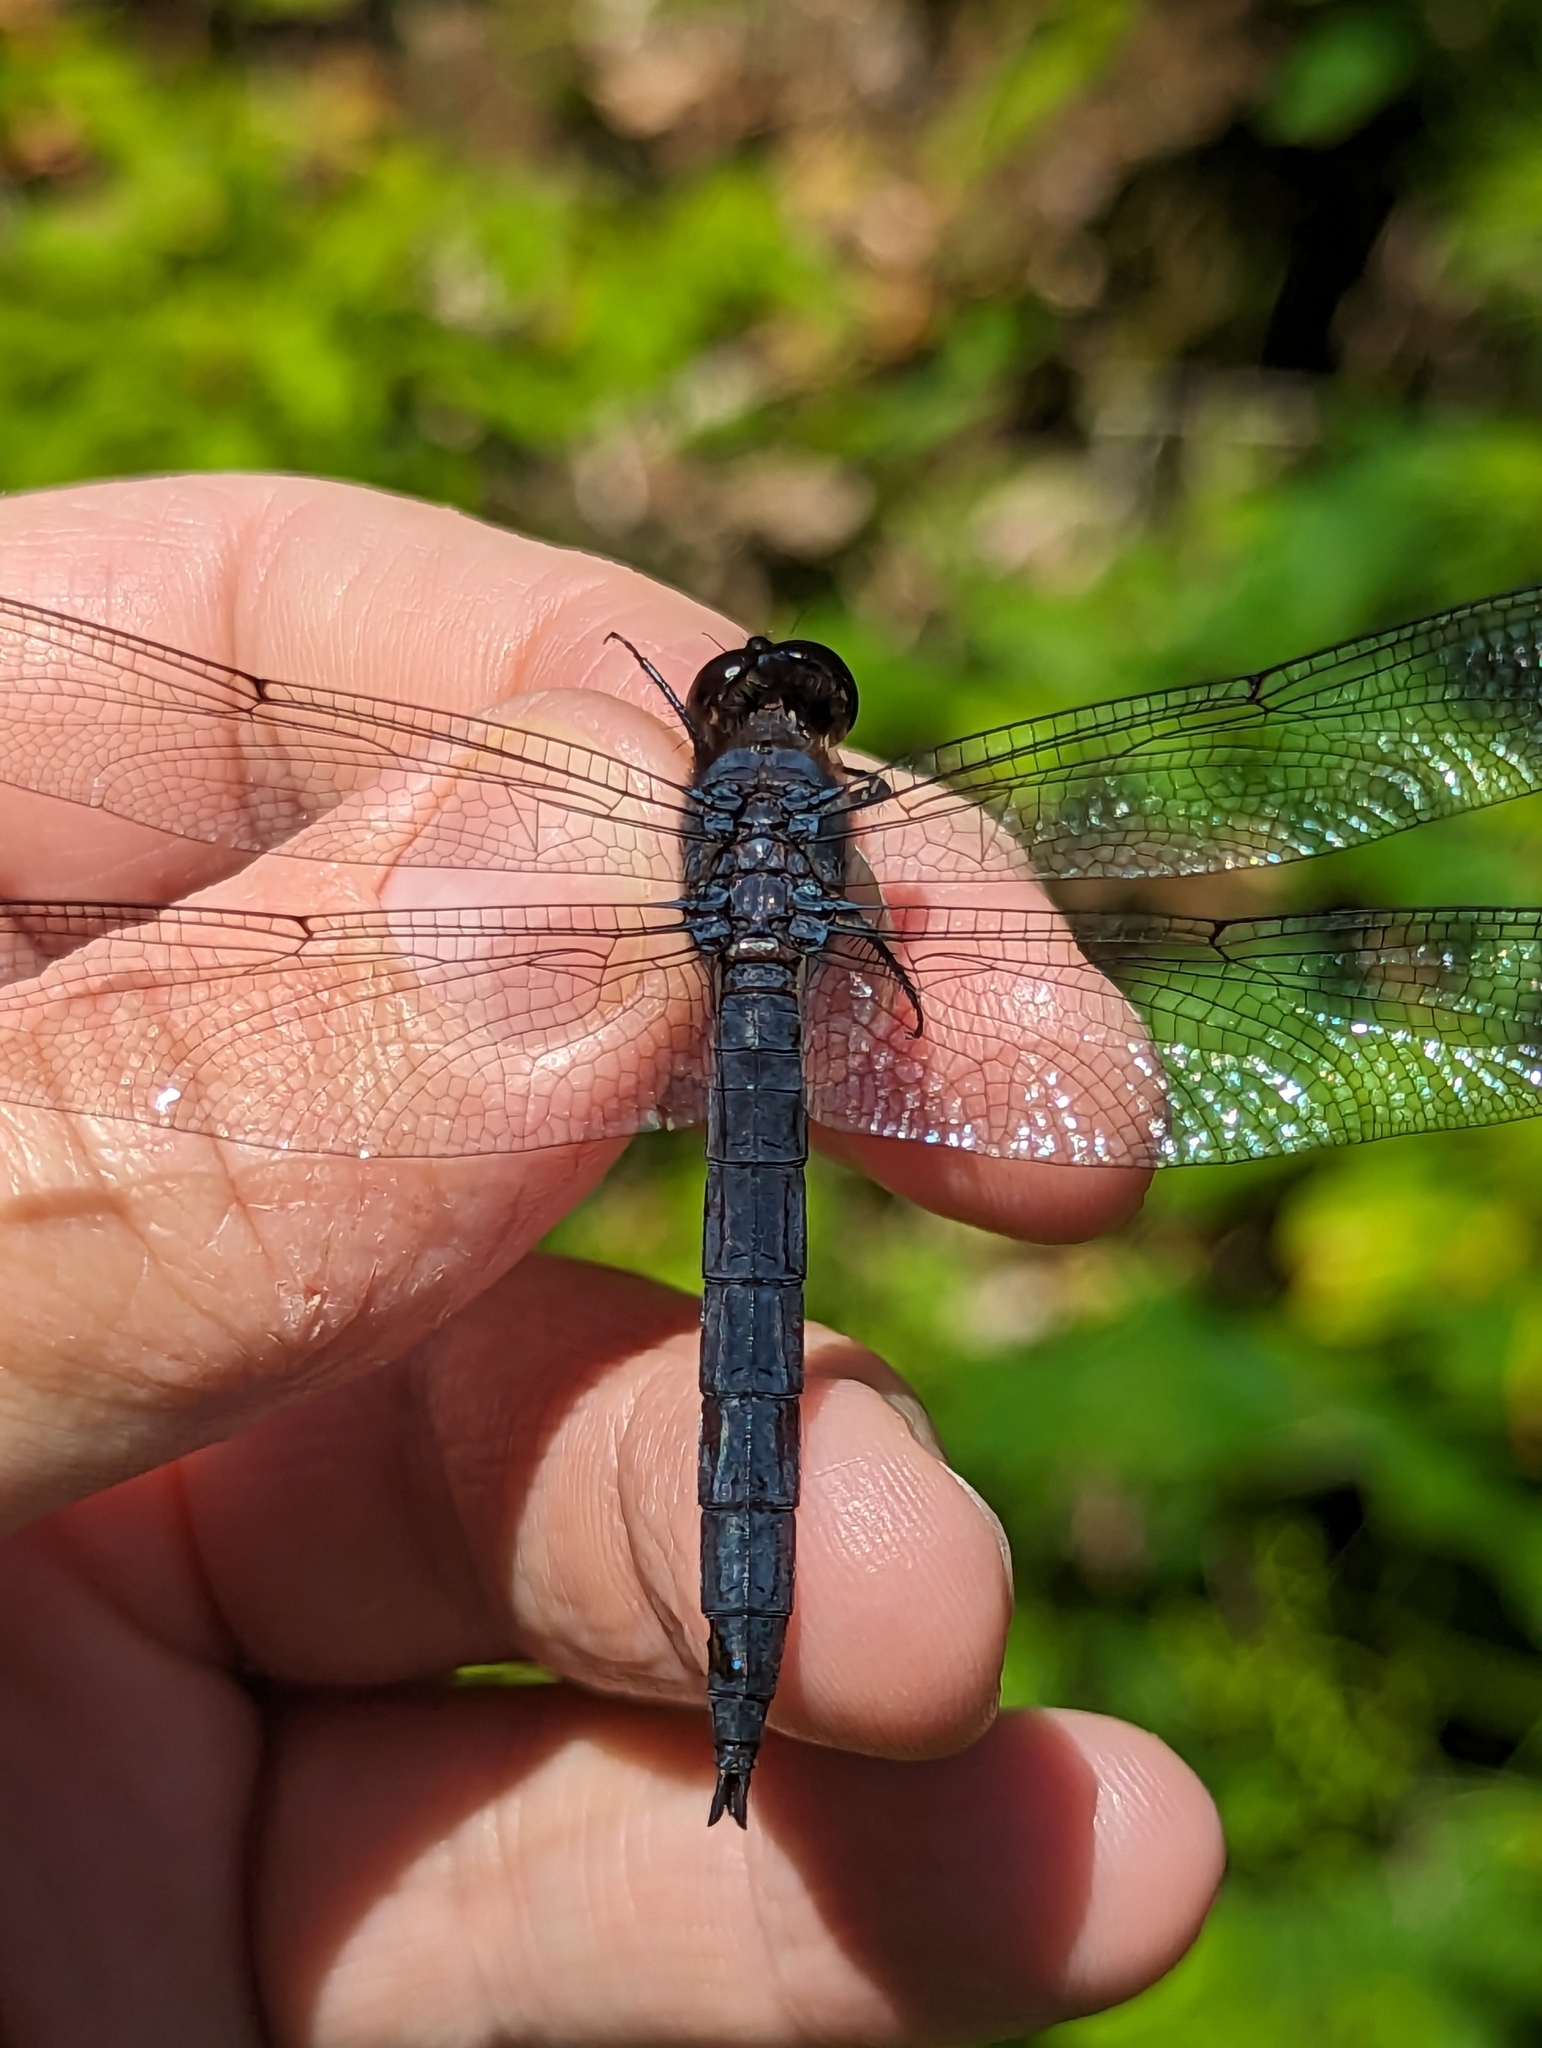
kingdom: Animalia
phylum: Arthropoda
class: Insecta
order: Odonata
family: Libellulidae
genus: Libellula
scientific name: Libellula incesta
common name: Slaty skimmer
